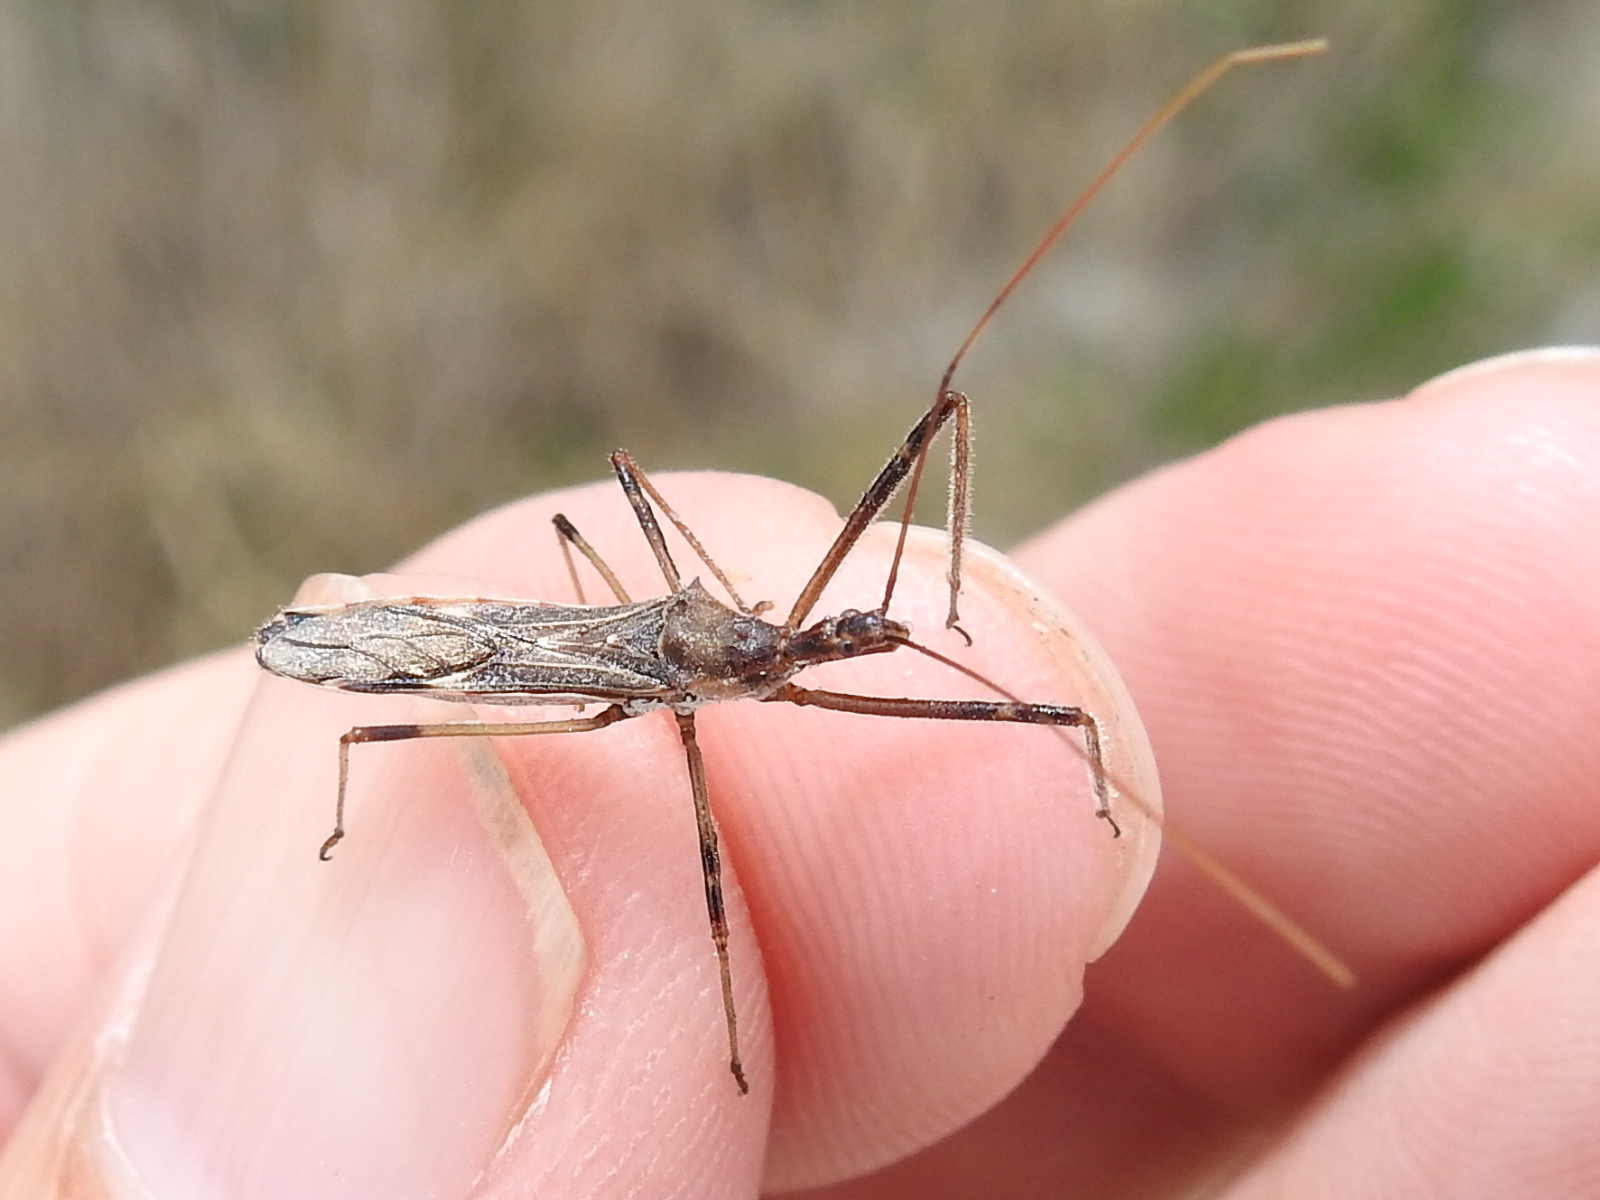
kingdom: Animalia
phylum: Arthropoda
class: Insecta
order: Hemiptera
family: Reduviidae
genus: Zelus
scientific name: Zelus tetracanthus
